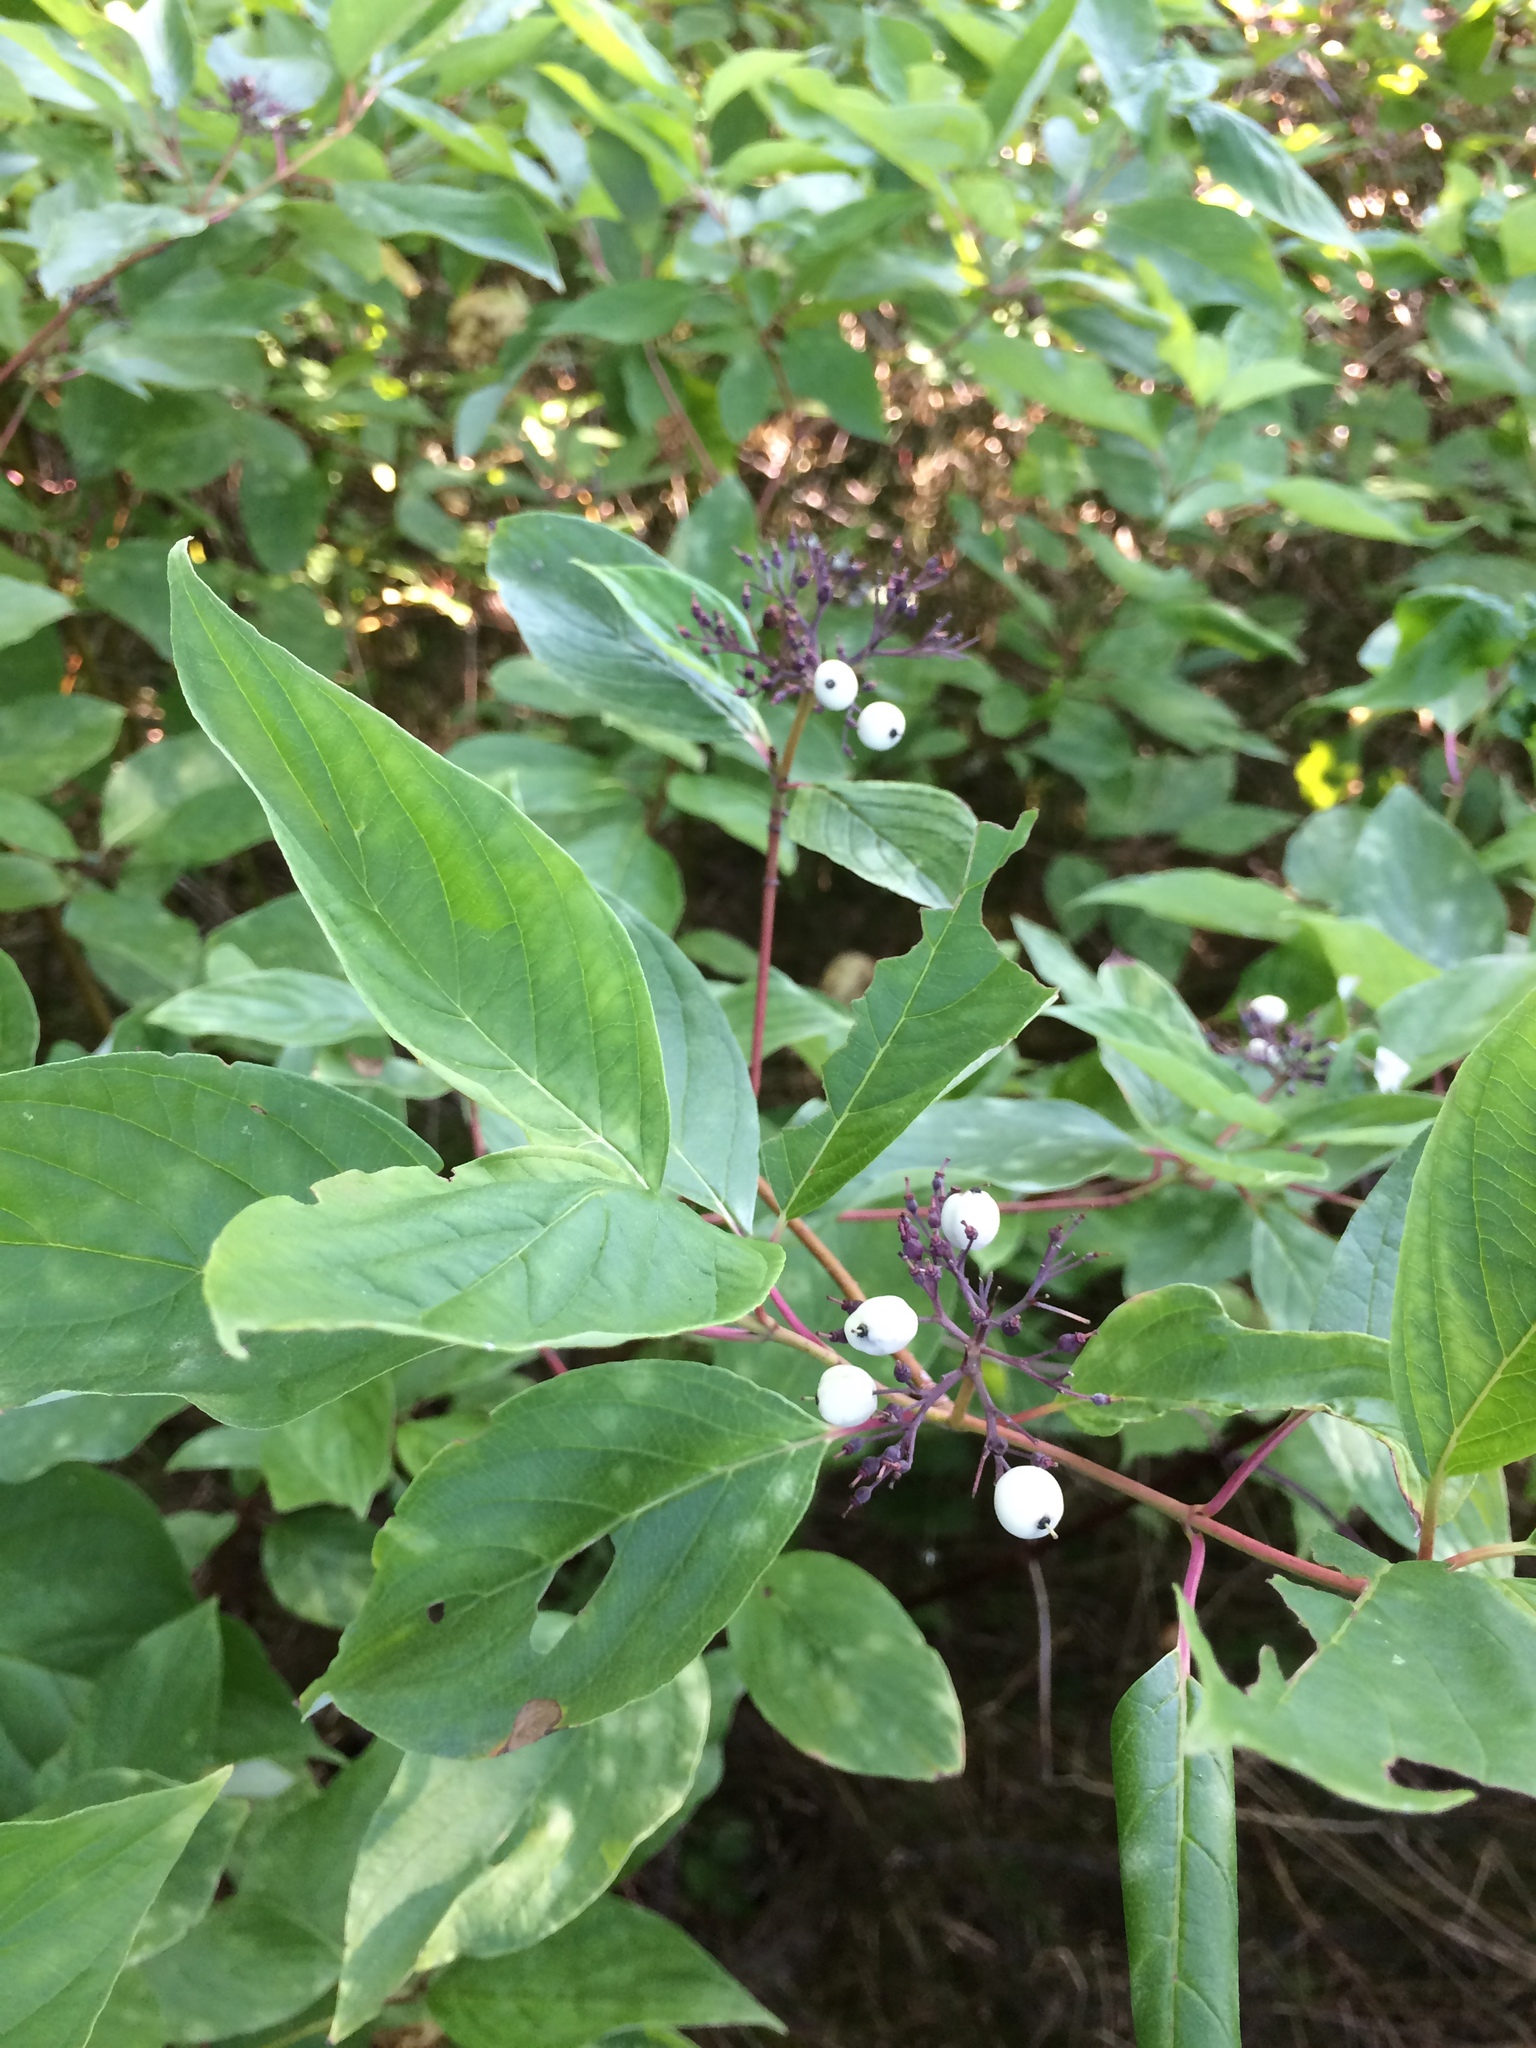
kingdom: Plantae
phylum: Tracheophyta
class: Magnoliopsida
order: Cornales
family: Cornaceae
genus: Cornus
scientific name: Cornus sericea
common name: Red-osier dogwood
